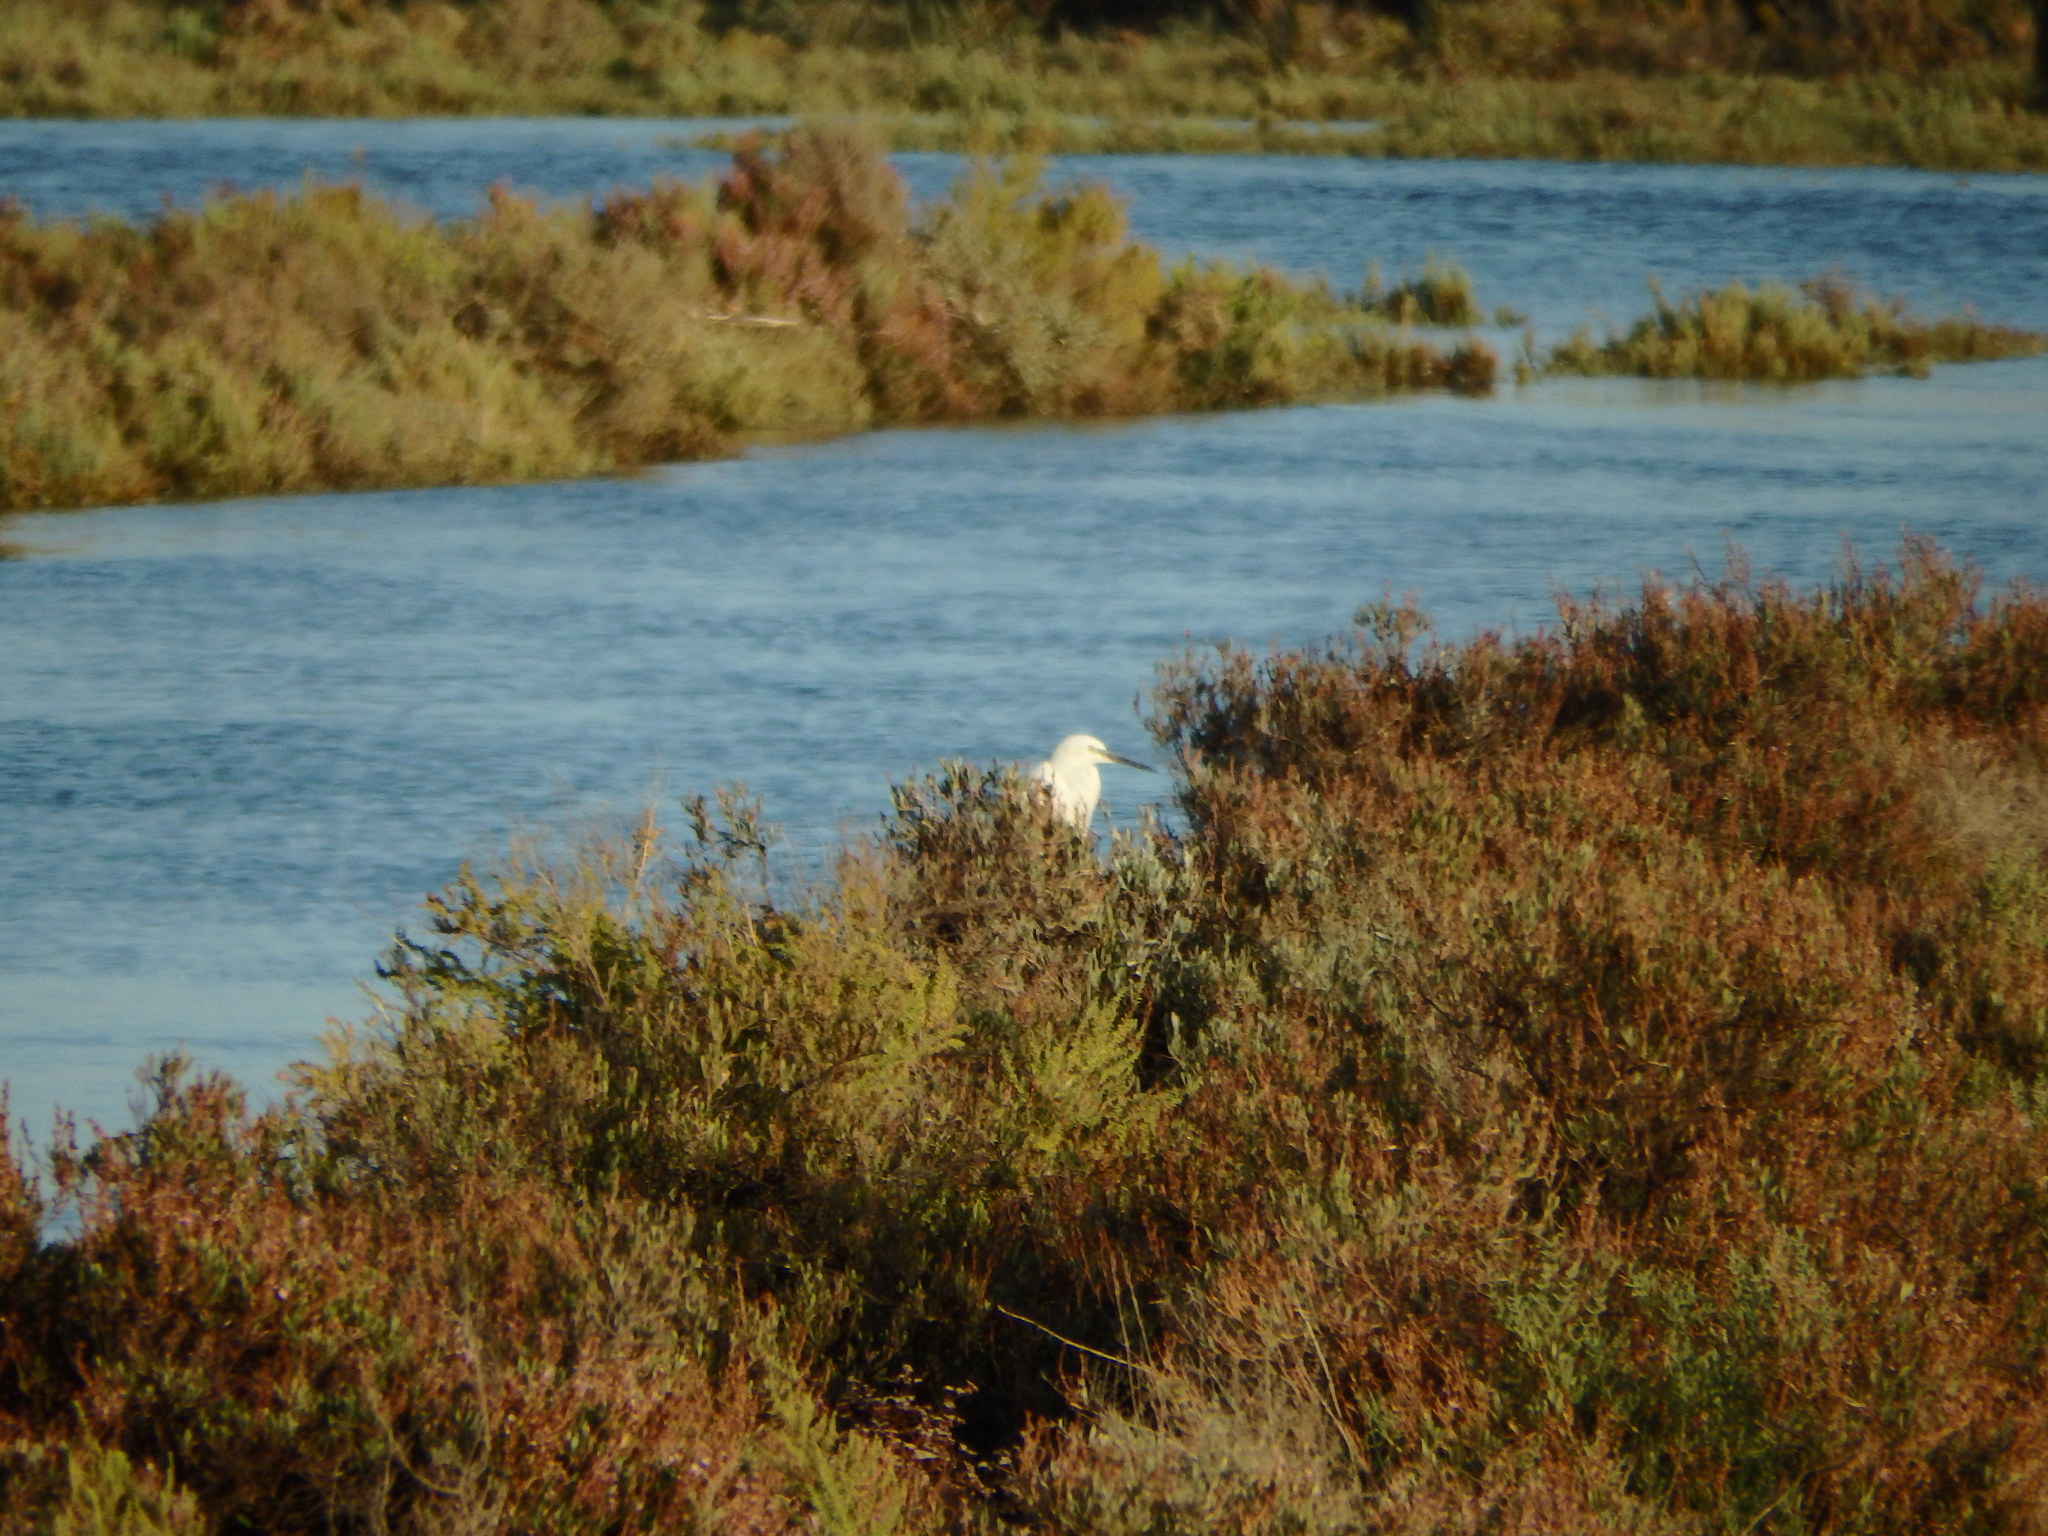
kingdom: Animalia
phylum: Chordata
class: Aves
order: Pelecaniformes
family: Ardeidae
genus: Egretta
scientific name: Egretta garzetta
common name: Little egret
